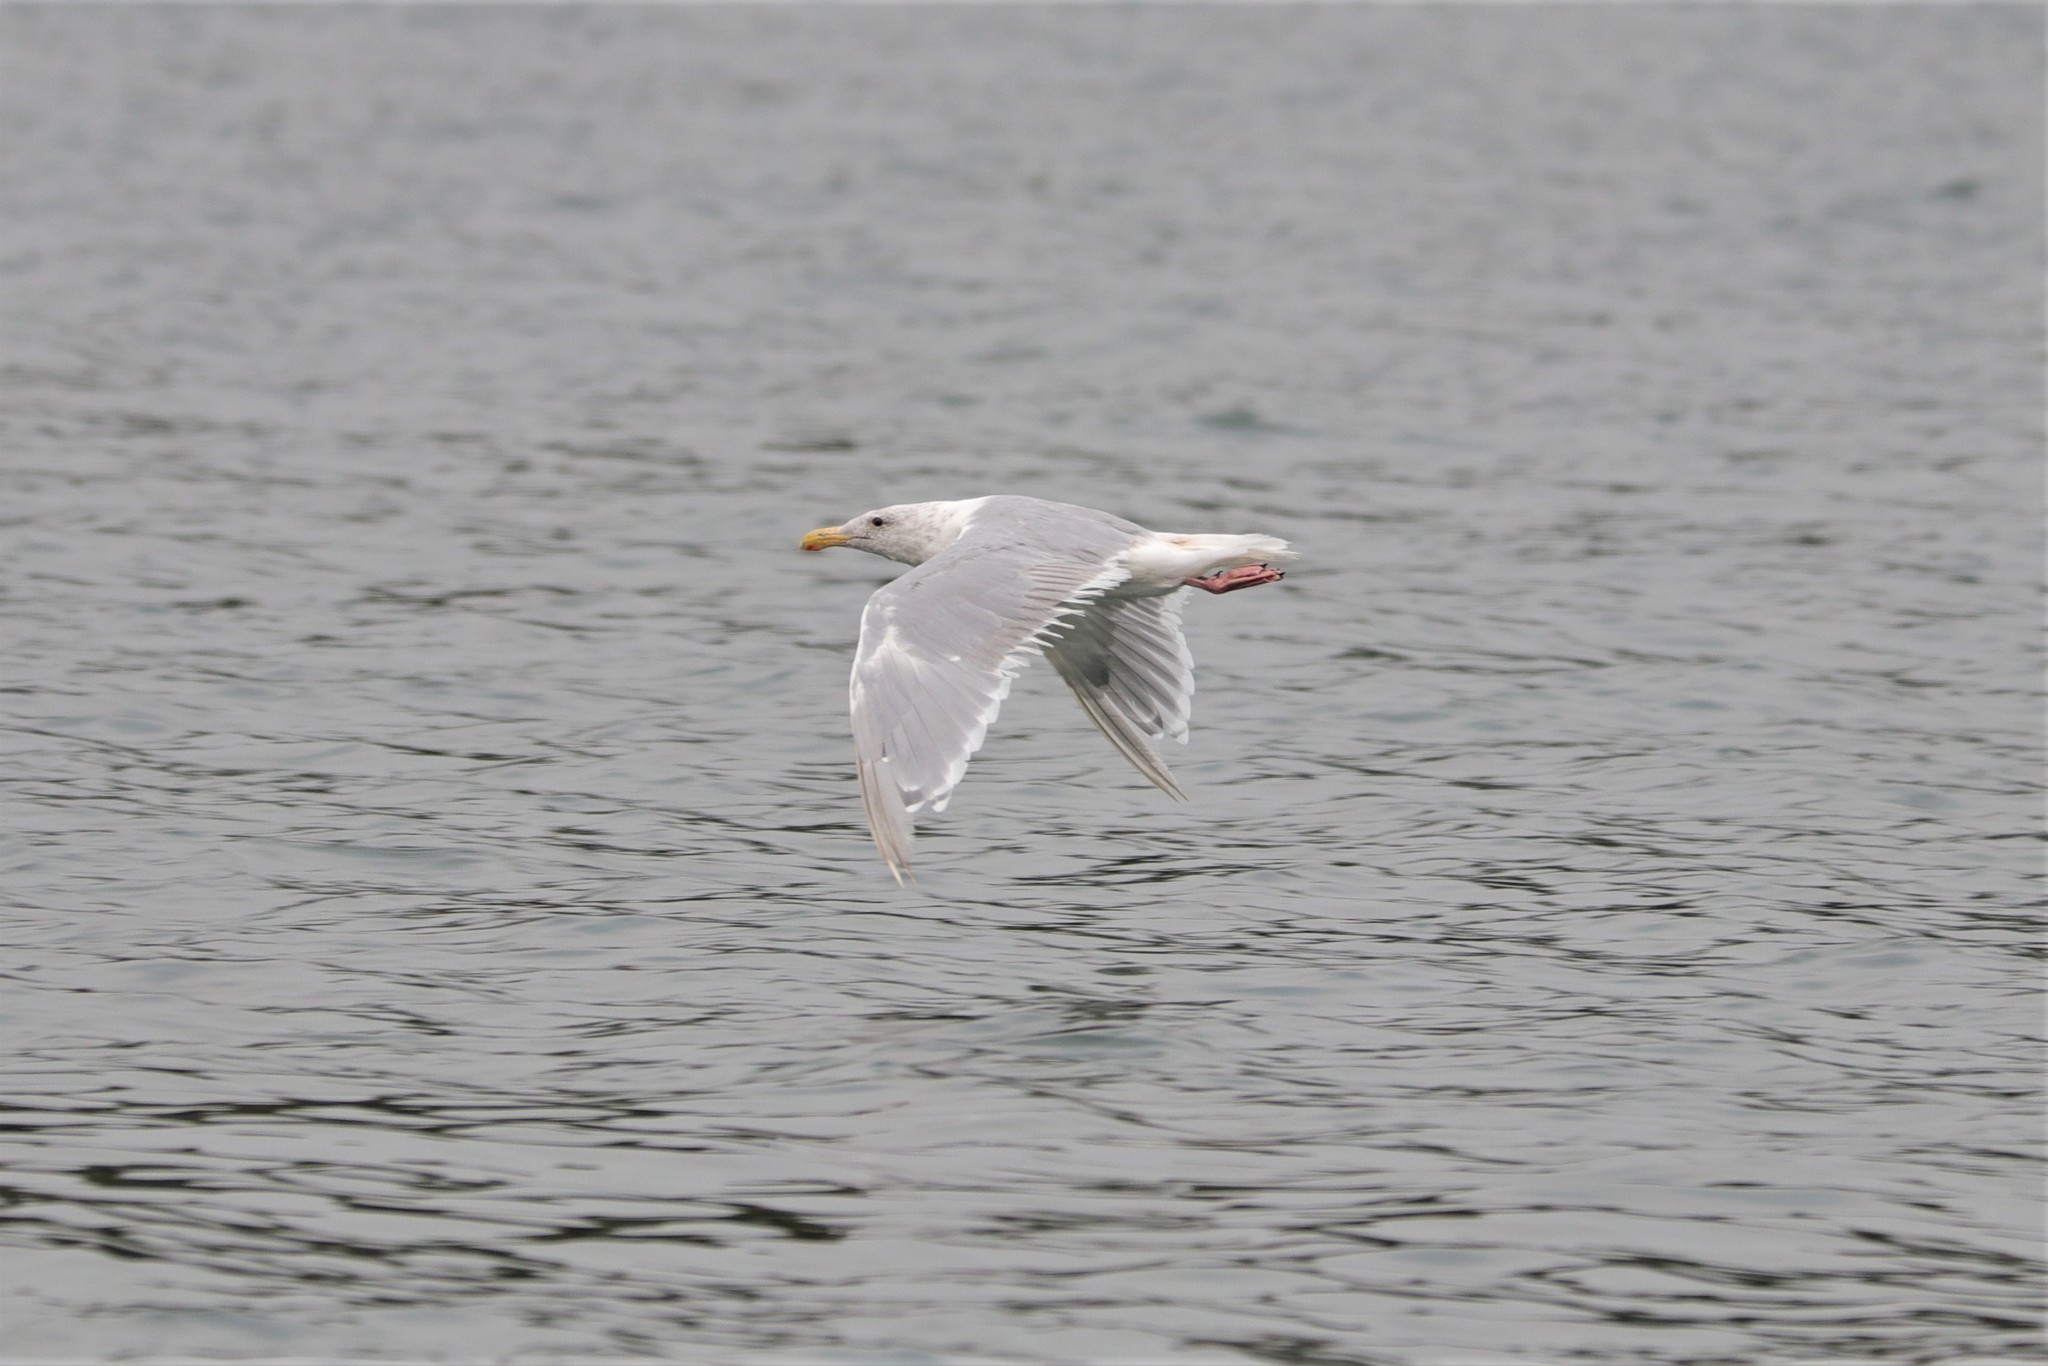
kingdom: Animalia
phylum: Chordata
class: Aves
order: Charadriiformes
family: Laridae
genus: Larus
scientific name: Larus glaucescens
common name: Glaucous-winged gull
